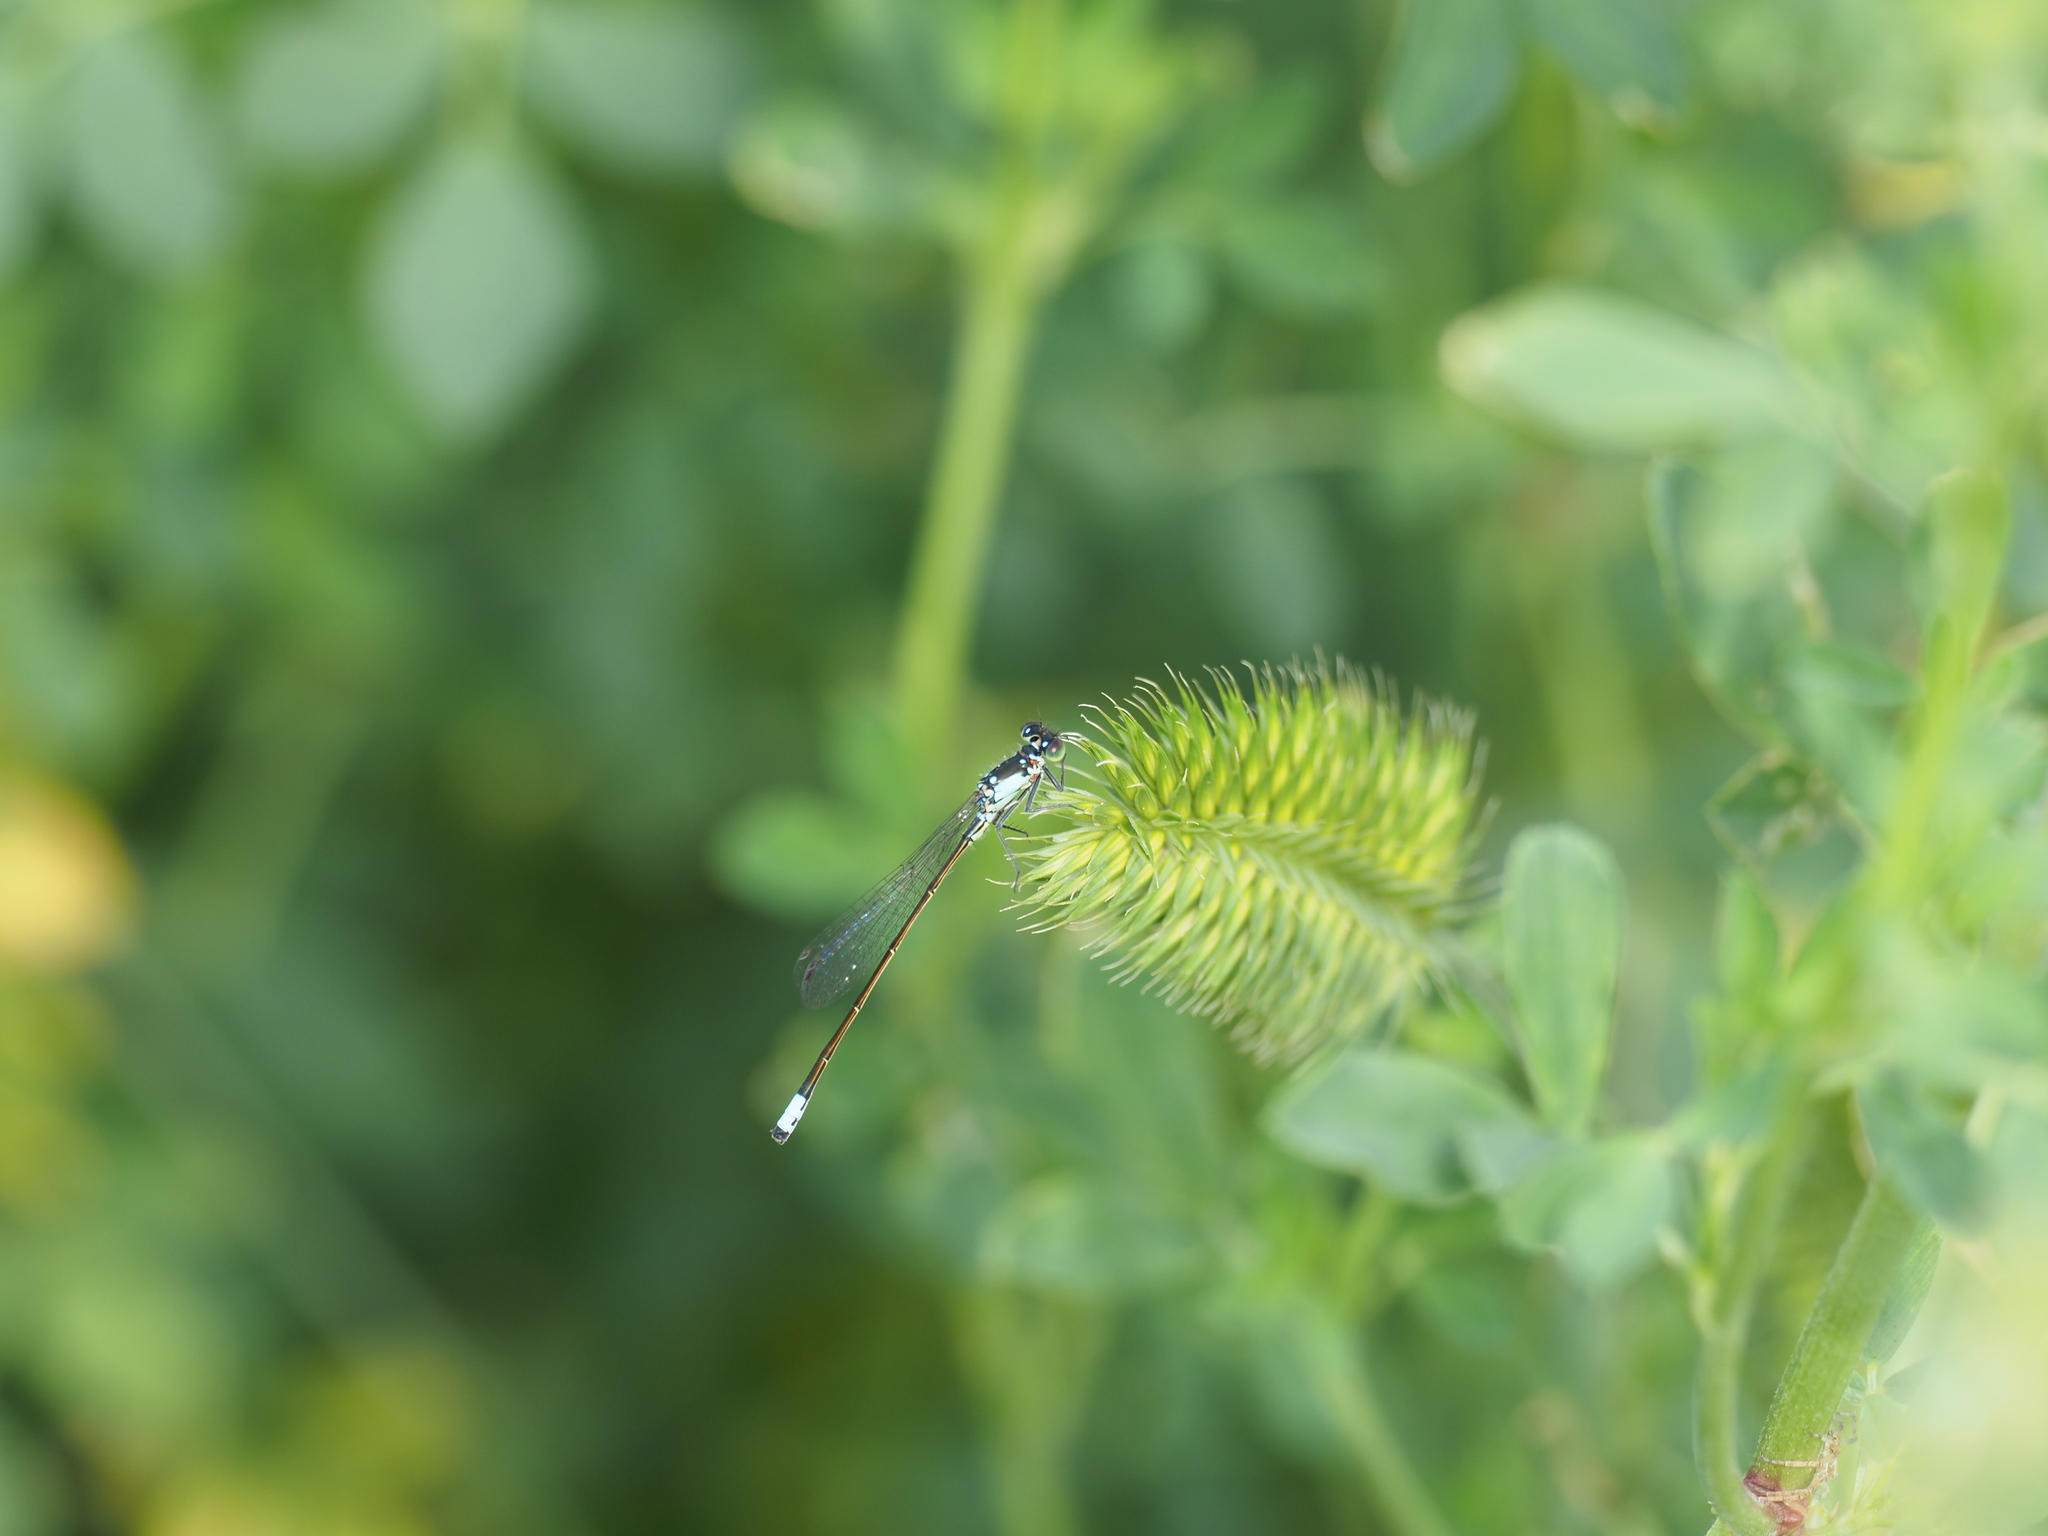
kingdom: Animalia
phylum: Arthropoda
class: Insecta
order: Odonata
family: Coenagrionidae
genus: Ischnura
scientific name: Ischnura cervula
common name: Pacific forktail
